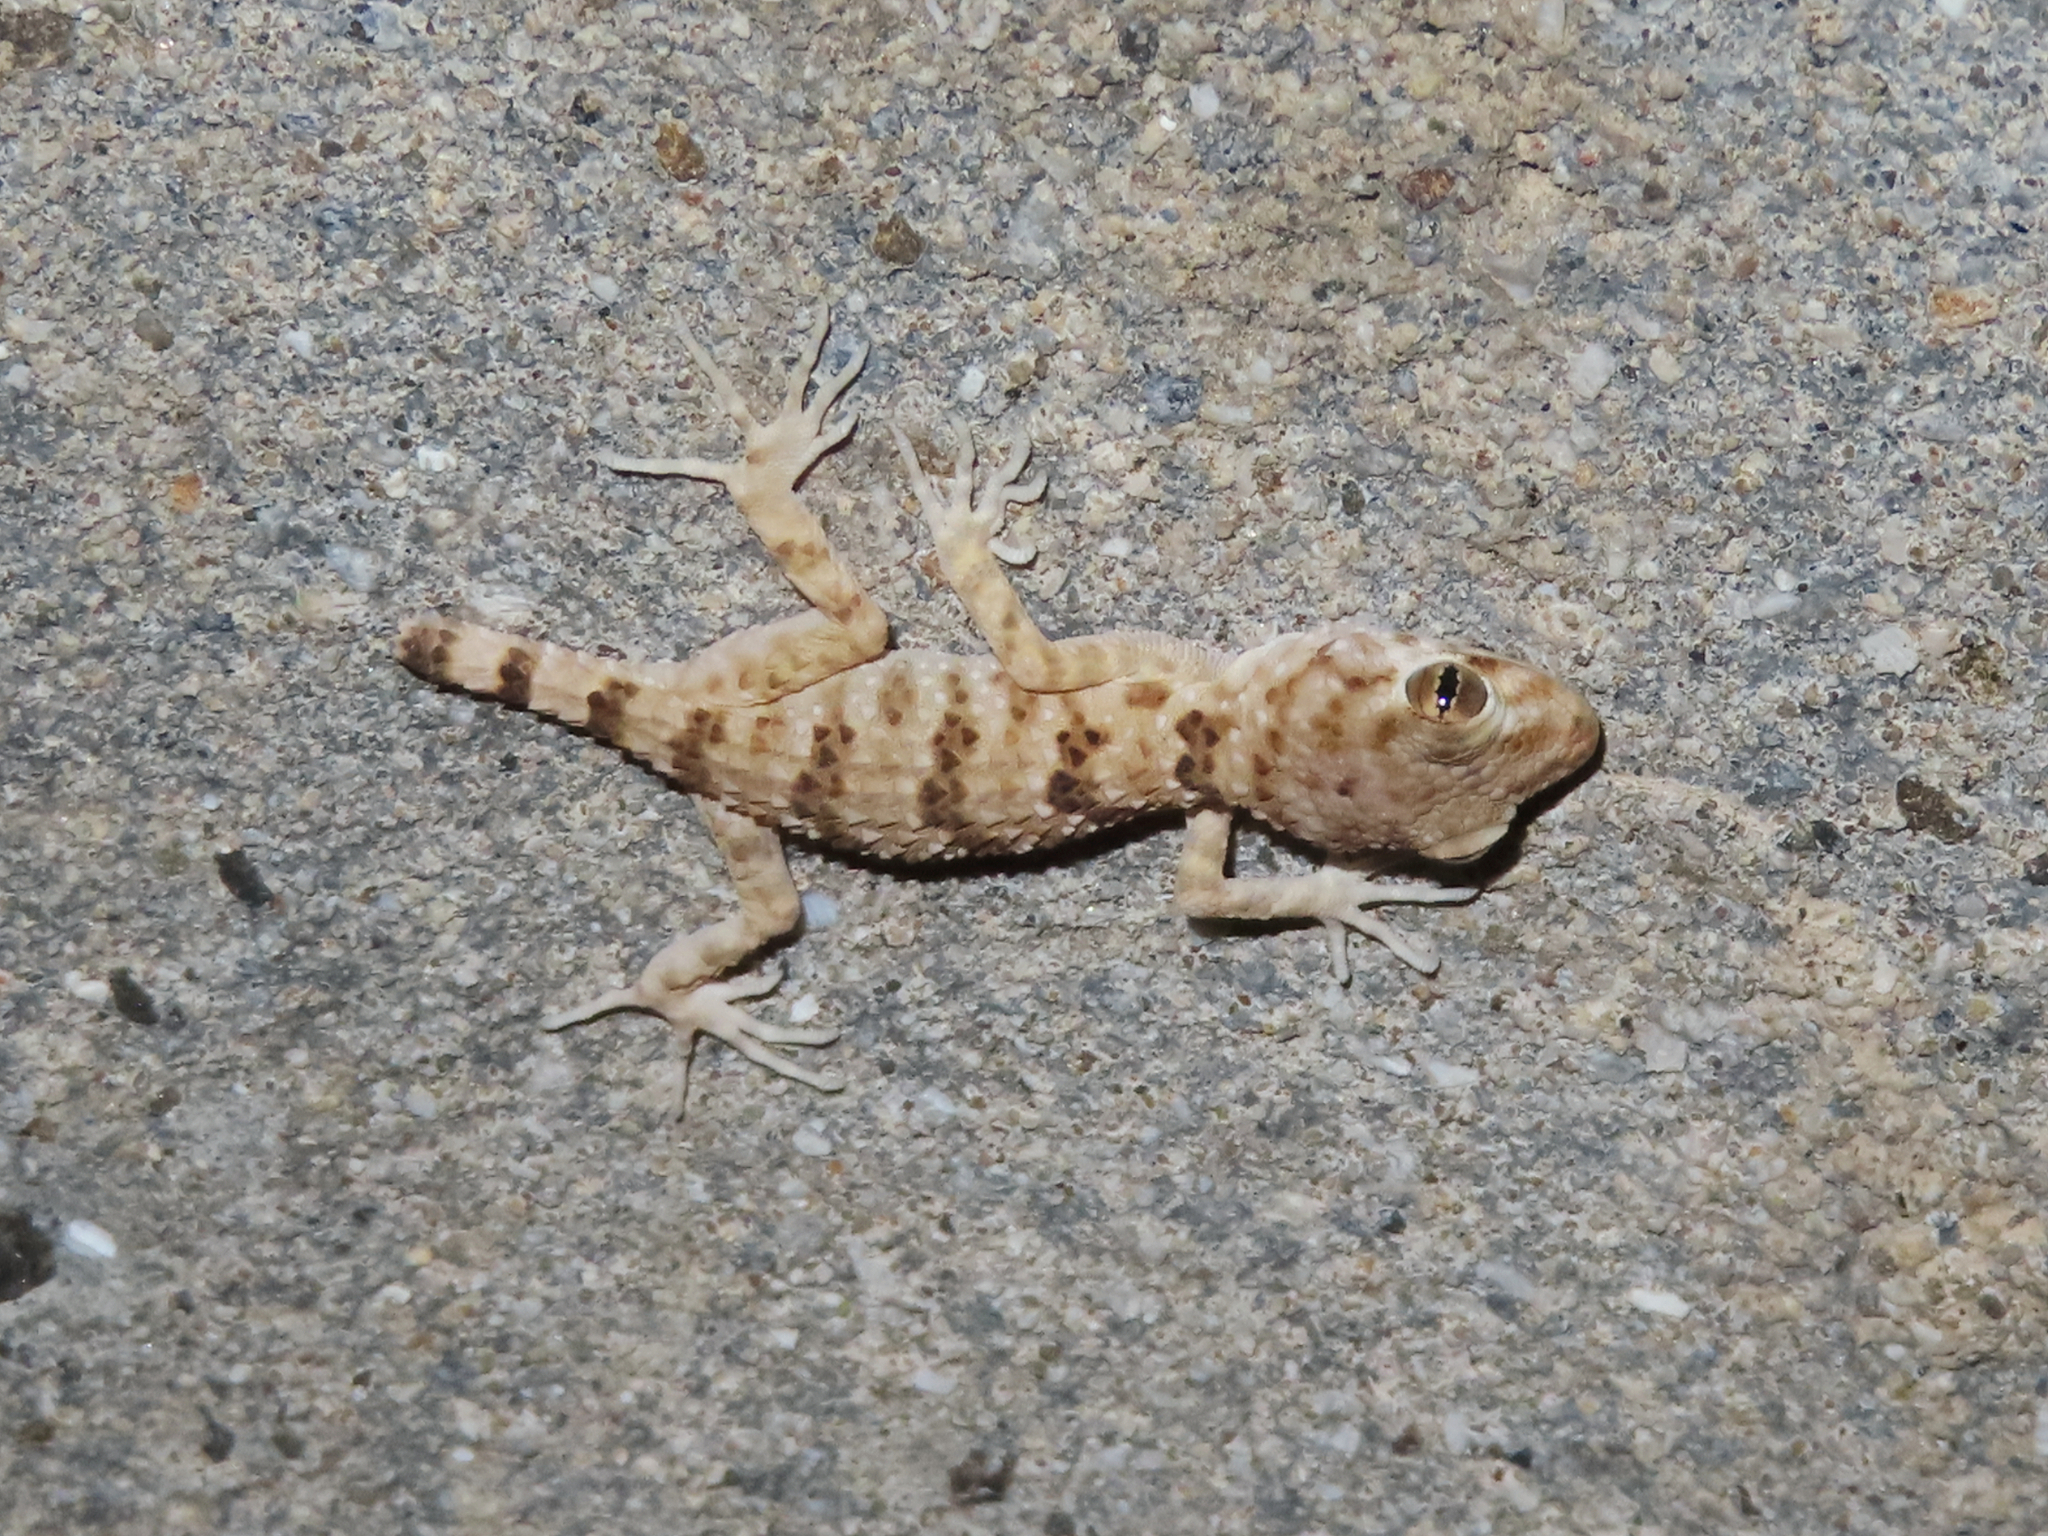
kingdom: Animalia
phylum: Chordata
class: Squamata
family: Gekkonidae
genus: Tenuidactylus
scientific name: Tenuidactylus caspius
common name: Caspian bent-toed gecko
